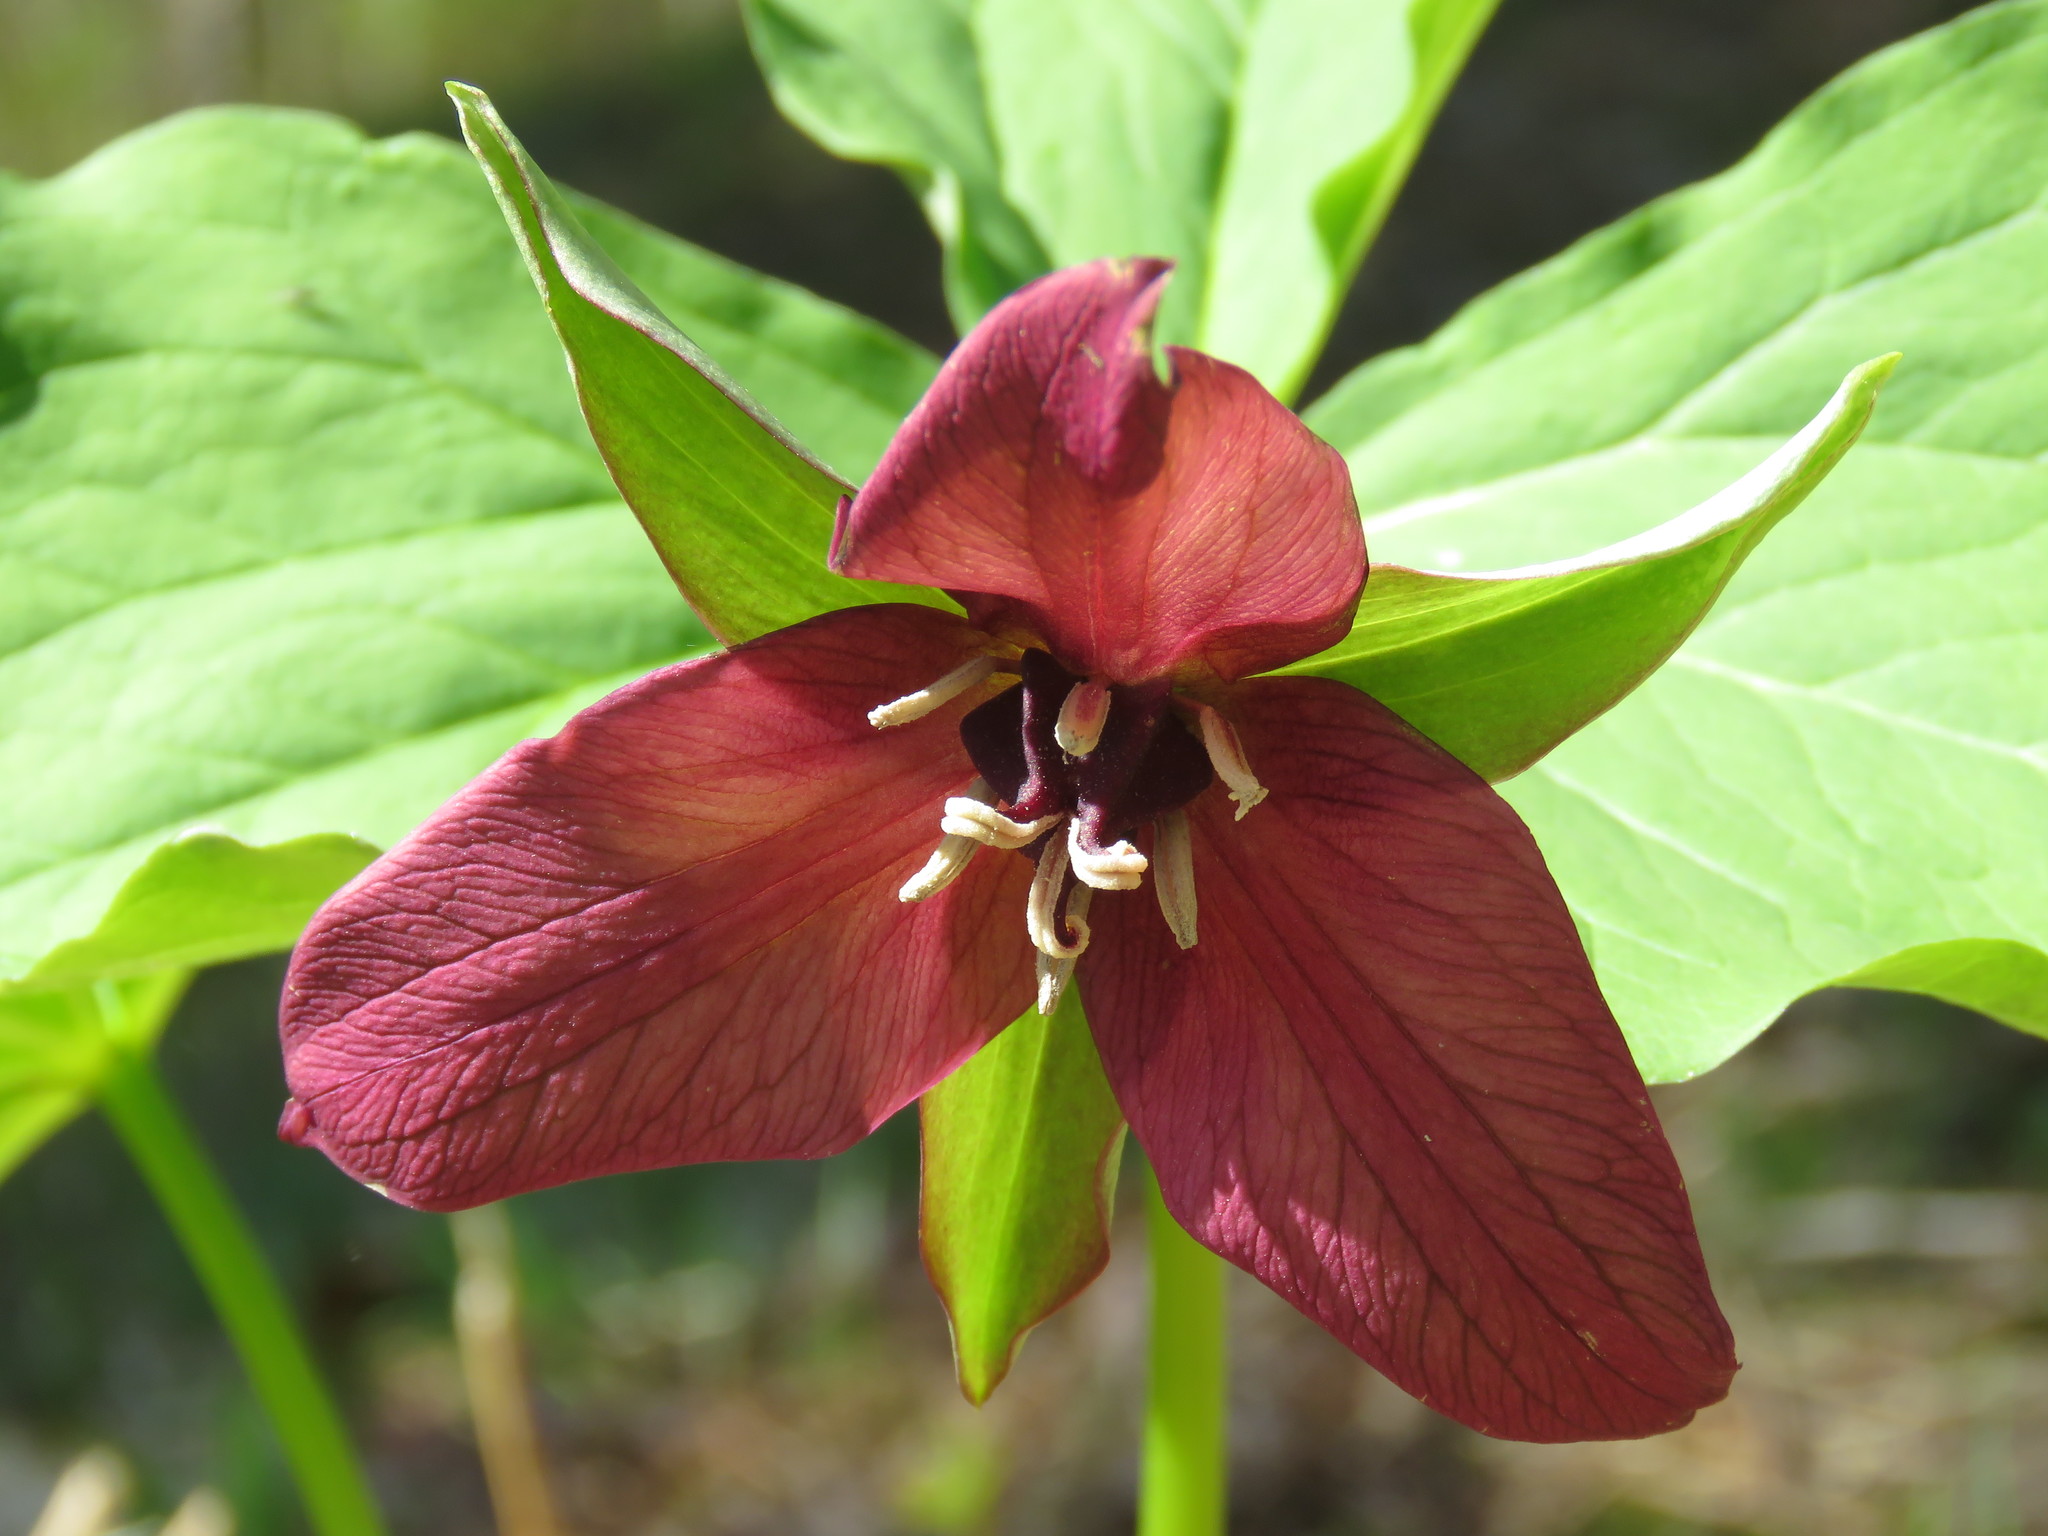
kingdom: Plantae
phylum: Tracheophyta
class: Liliopsida
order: Liliales
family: Melanthiaceae
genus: Trillium
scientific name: Trillium erectum
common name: Purple trillium
